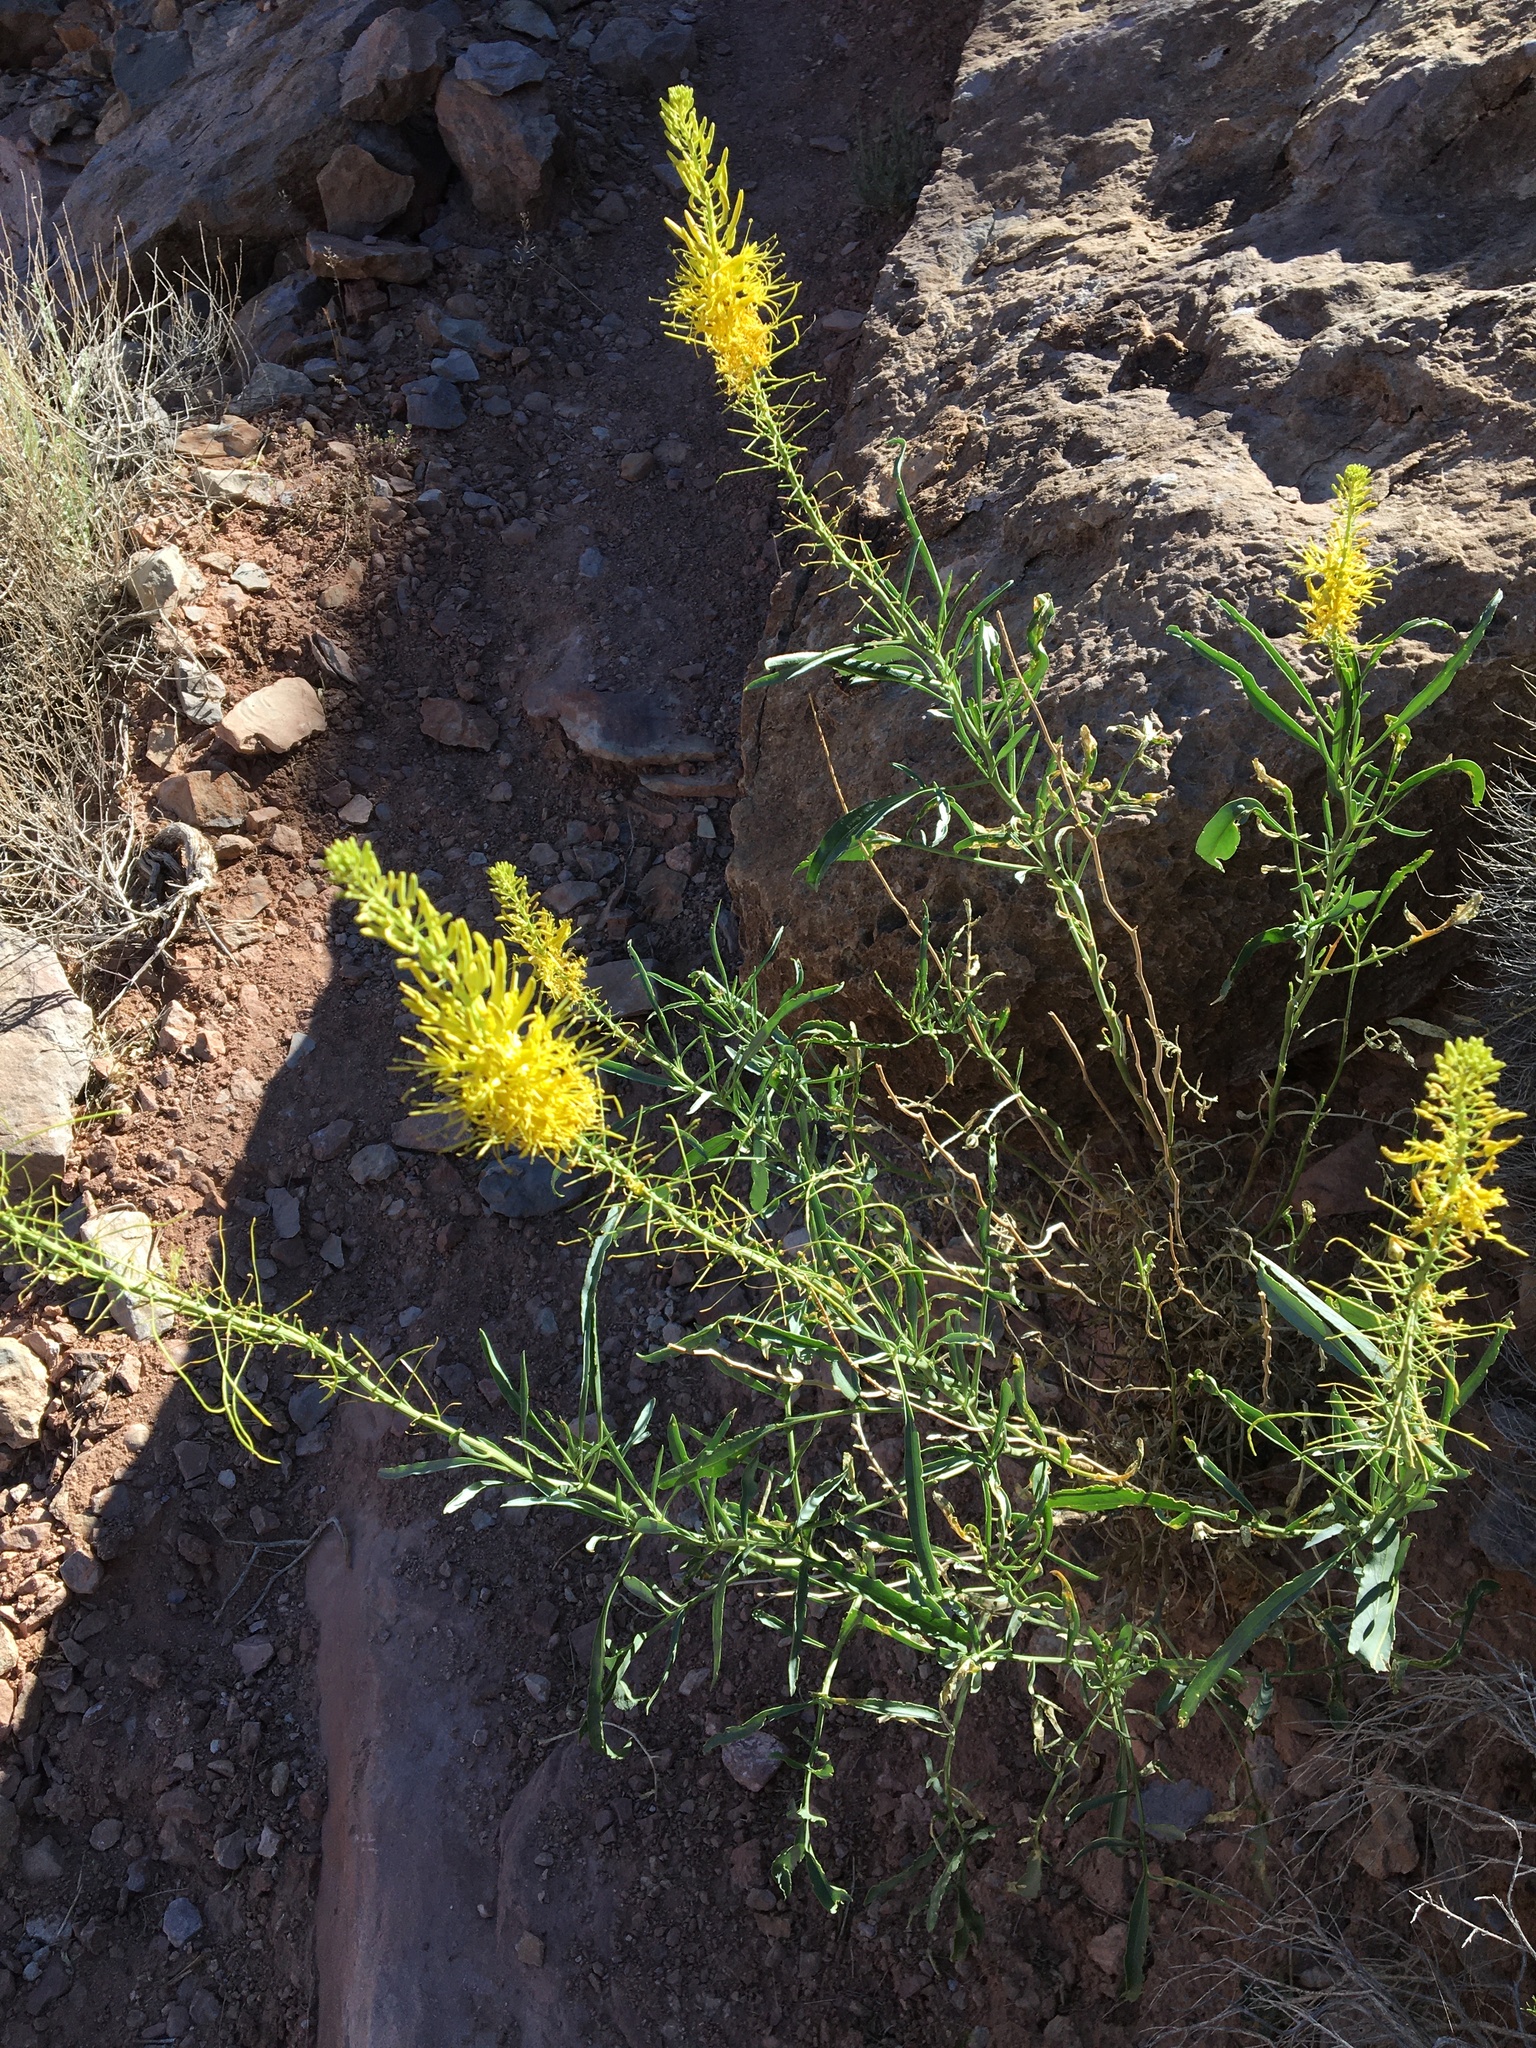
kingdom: Plantae
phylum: Tracheophyta
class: Magnoliopsida
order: Brassicales
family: Brassicaceae
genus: Stanleya
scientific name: Stanleya pinnata
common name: Prince's-plume
